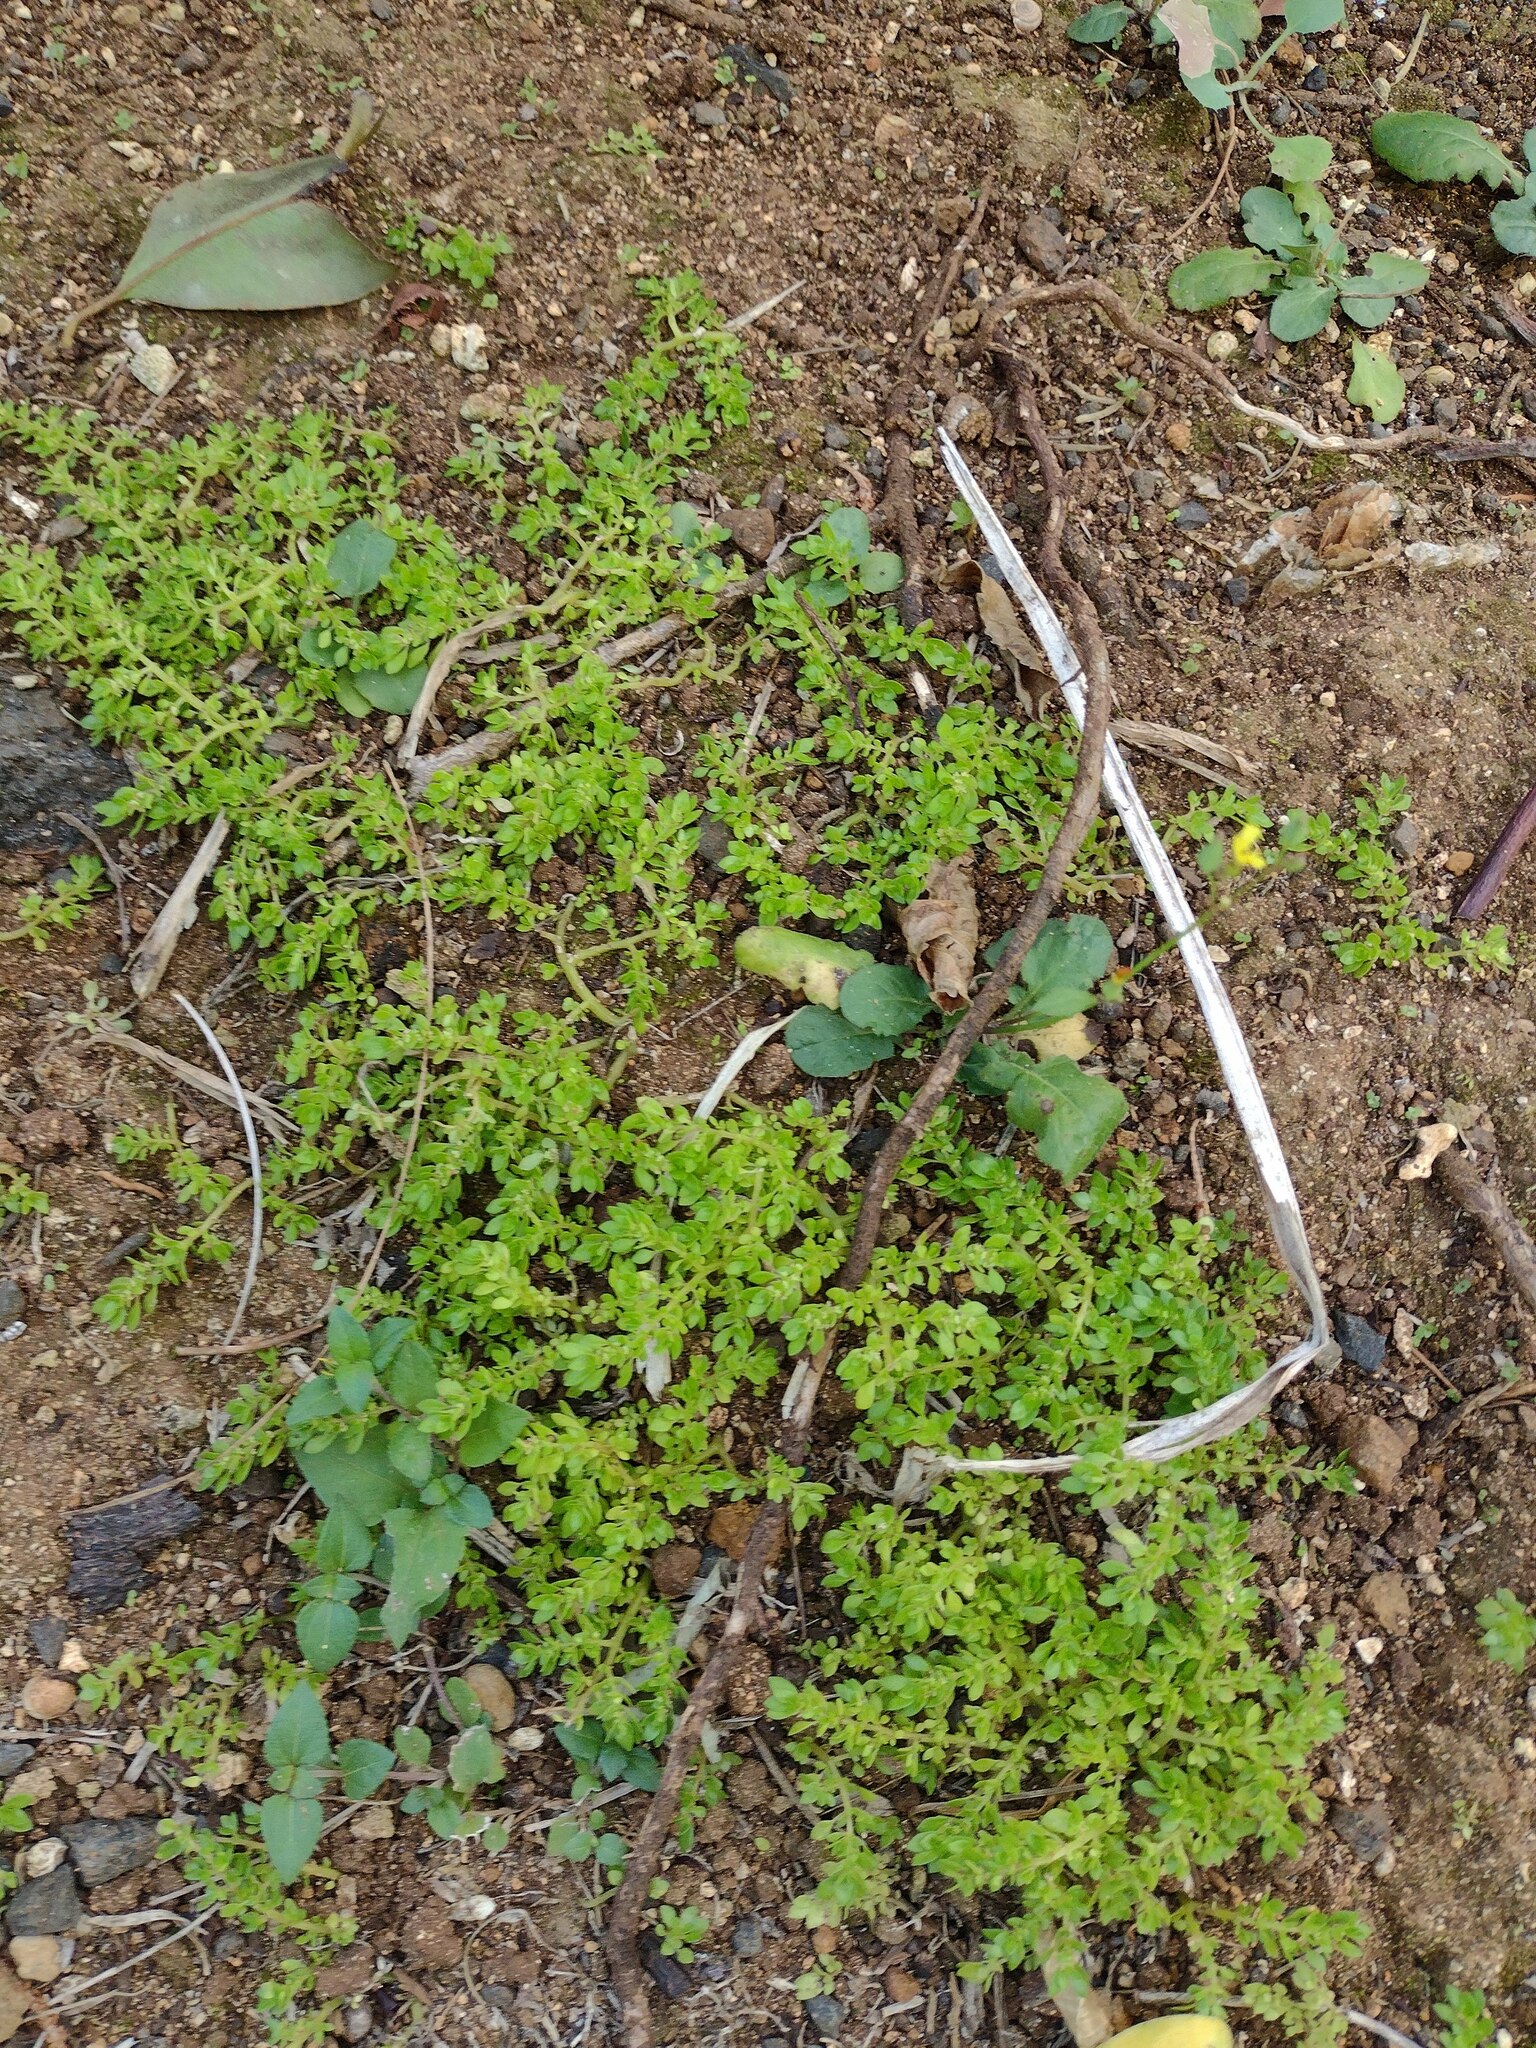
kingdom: Plantae
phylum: Tracheophyta
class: Magnoliopsida
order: Rosales
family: Urticaceae
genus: Pilea
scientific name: Pilea microphylla
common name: Artillery-plant
